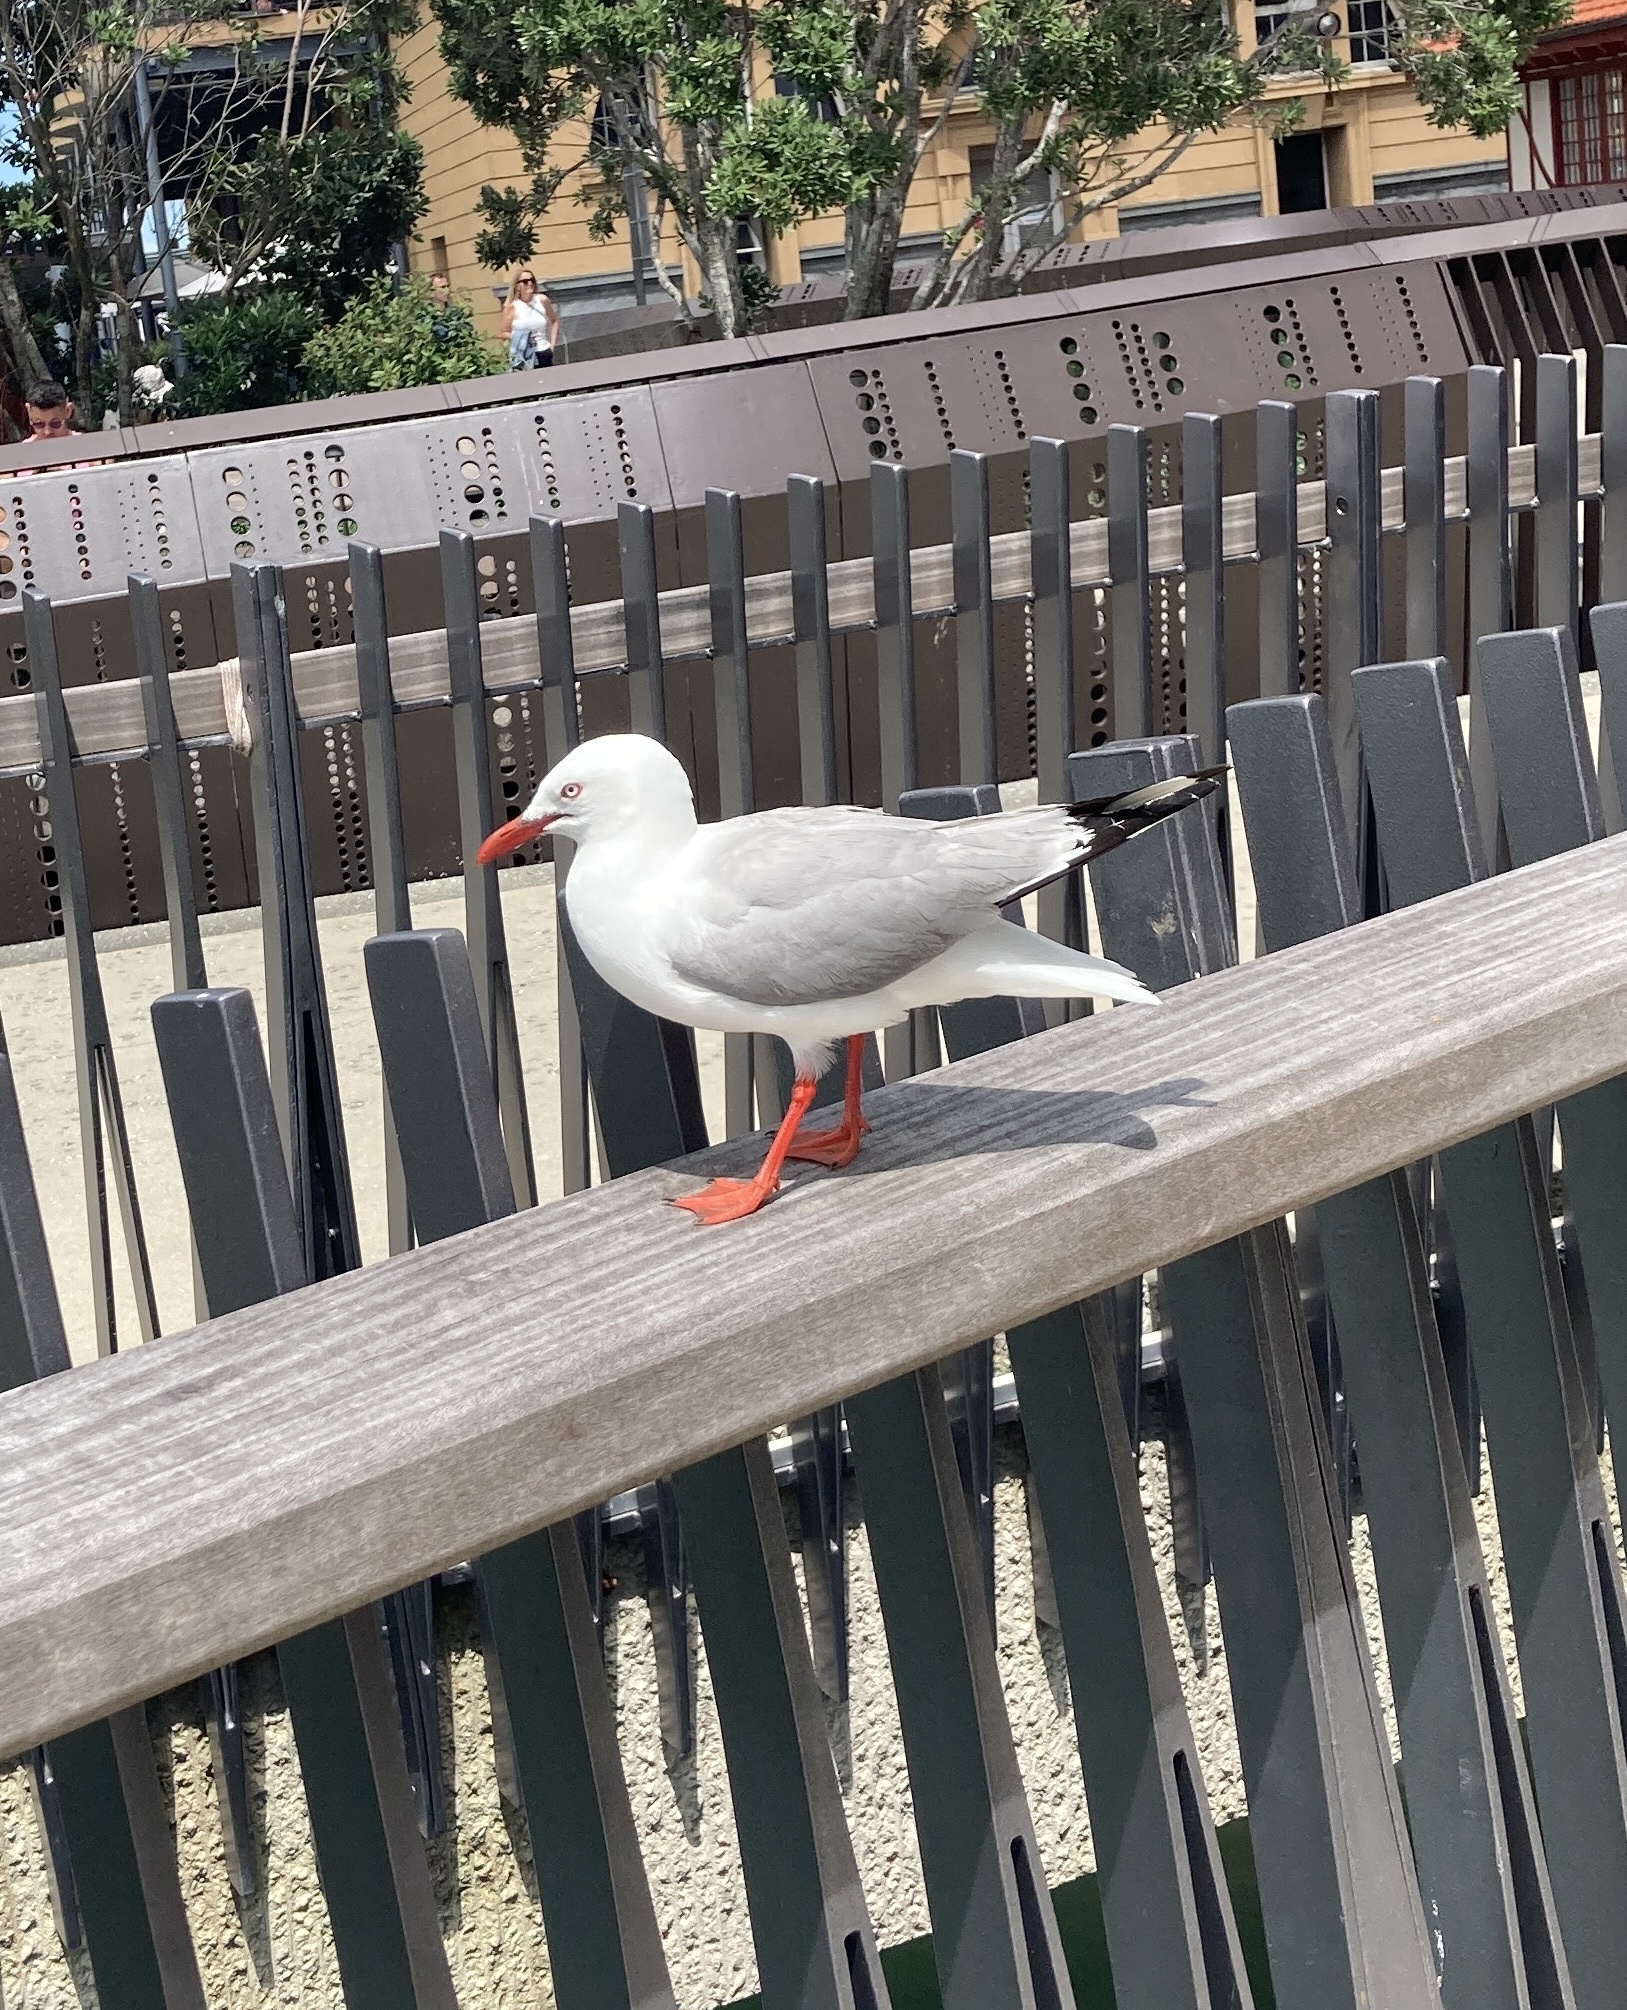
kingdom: Animalia
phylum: Chordata
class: Aves
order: Charadriiformes
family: Laridae
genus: Chroicocephalus
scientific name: Chroicocephalus novaehollandiae
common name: Silver gull
